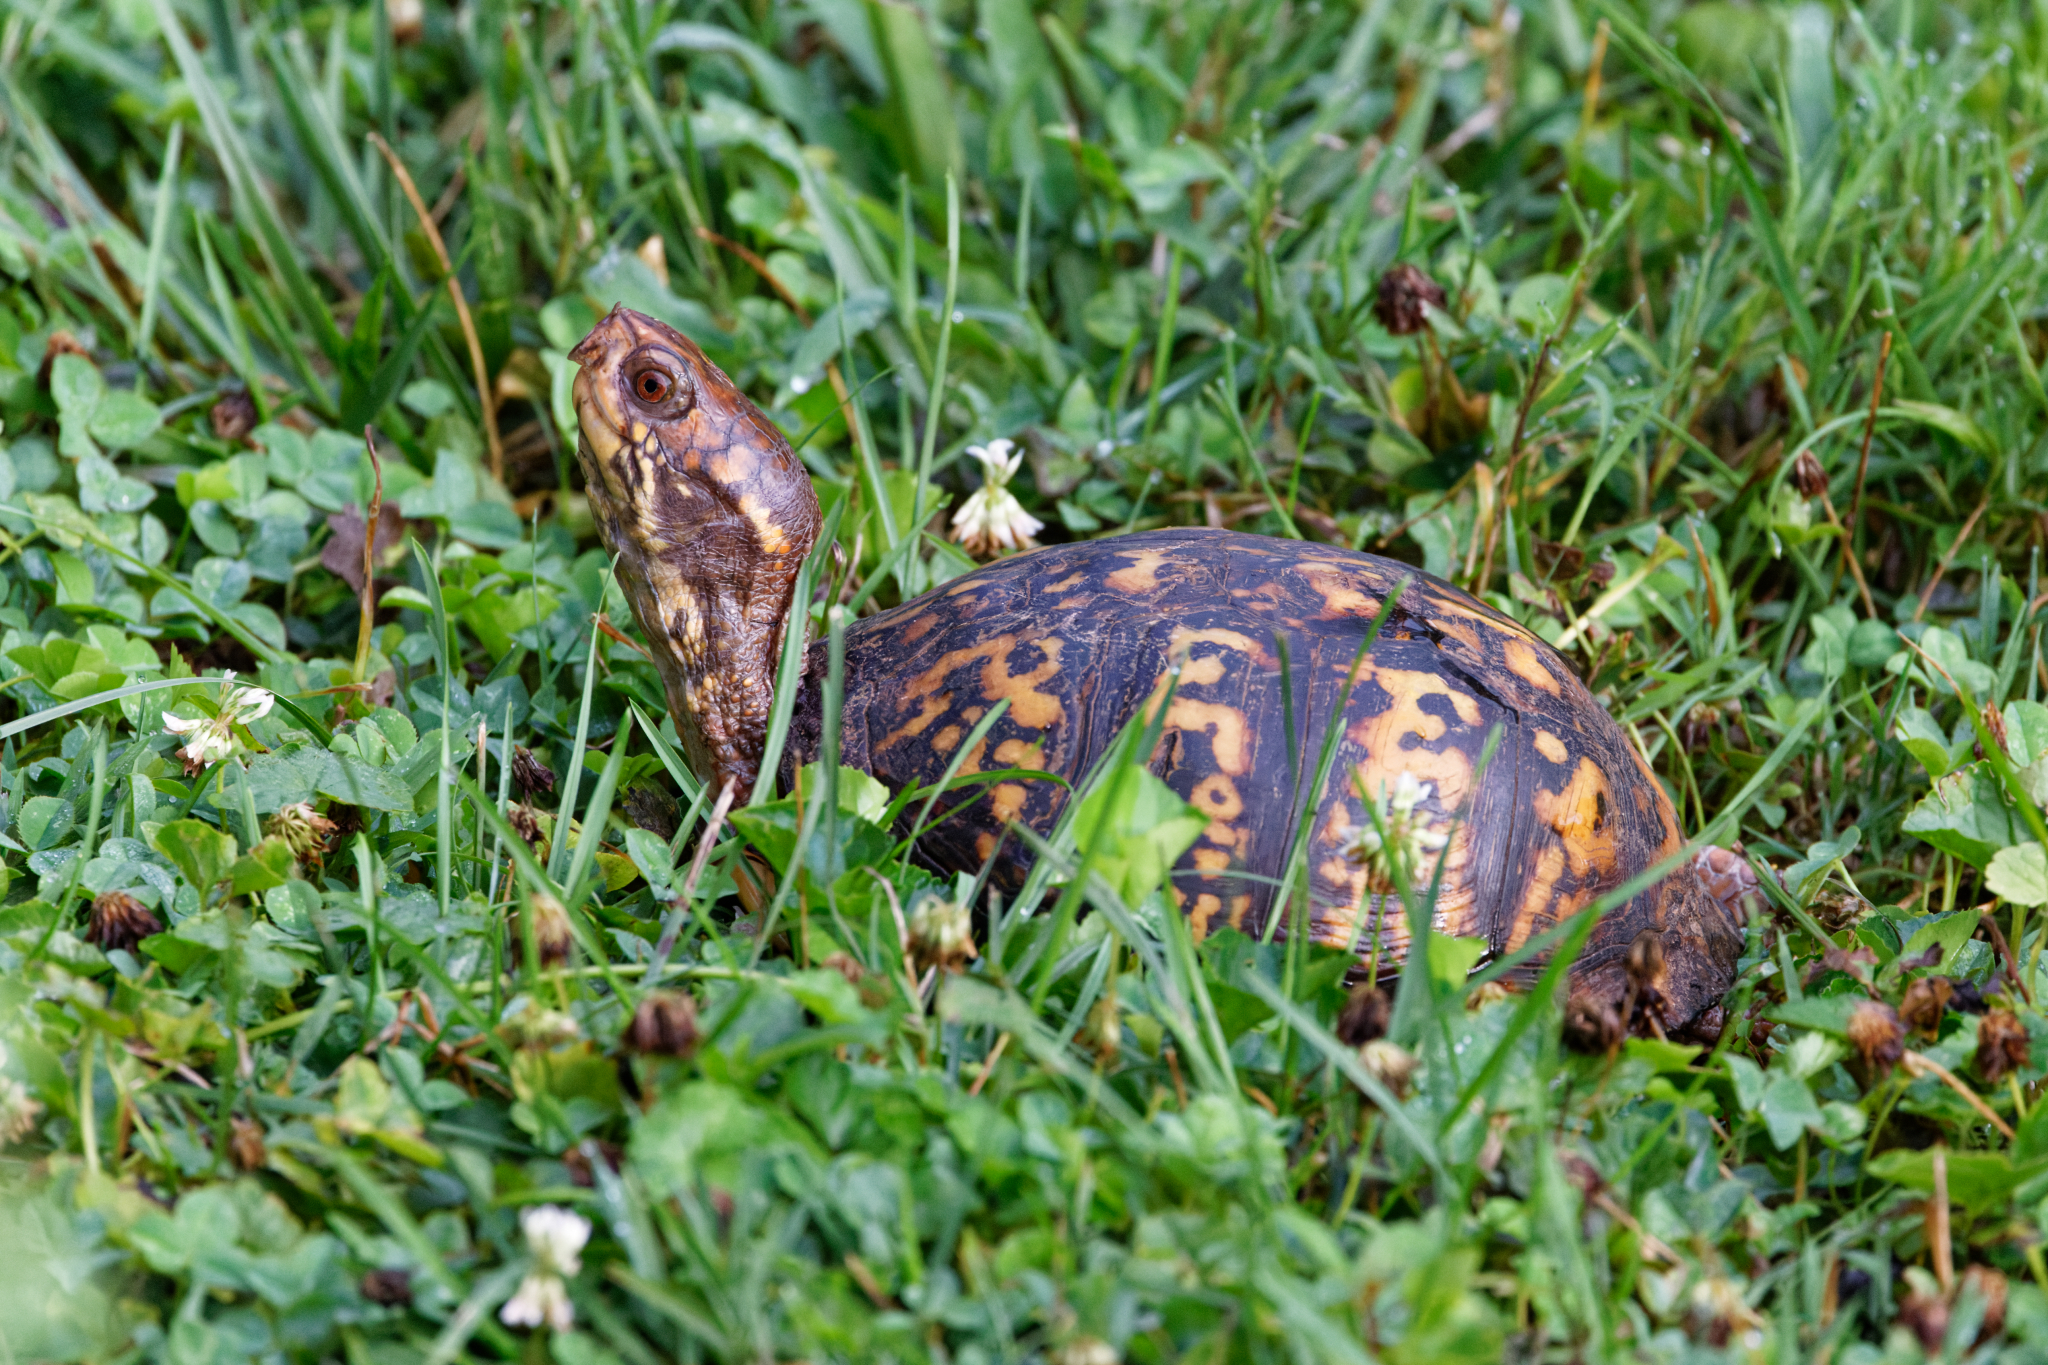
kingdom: Animalia
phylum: Chordata
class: Testudines
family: Emydidae
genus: Terrapene
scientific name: Terrapene carolina
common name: Common box turtle
